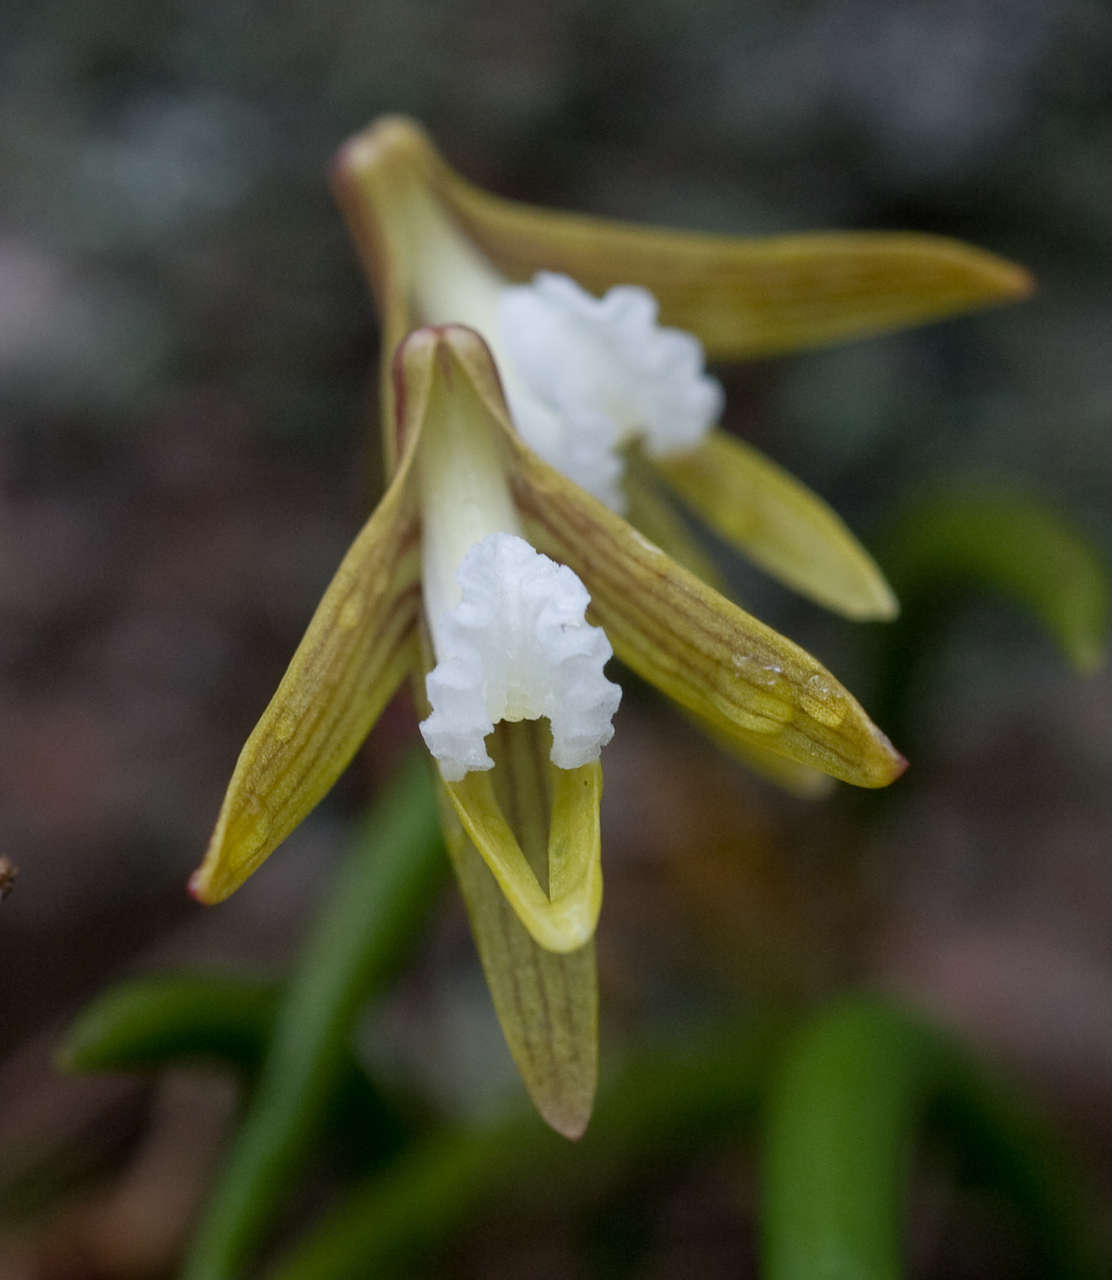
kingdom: Plantae
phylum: Tracheophyta
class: Liliopsida
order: Asparagales
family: Orchidaceae
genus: Dendrobium
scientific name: Dendrobium striolatum
